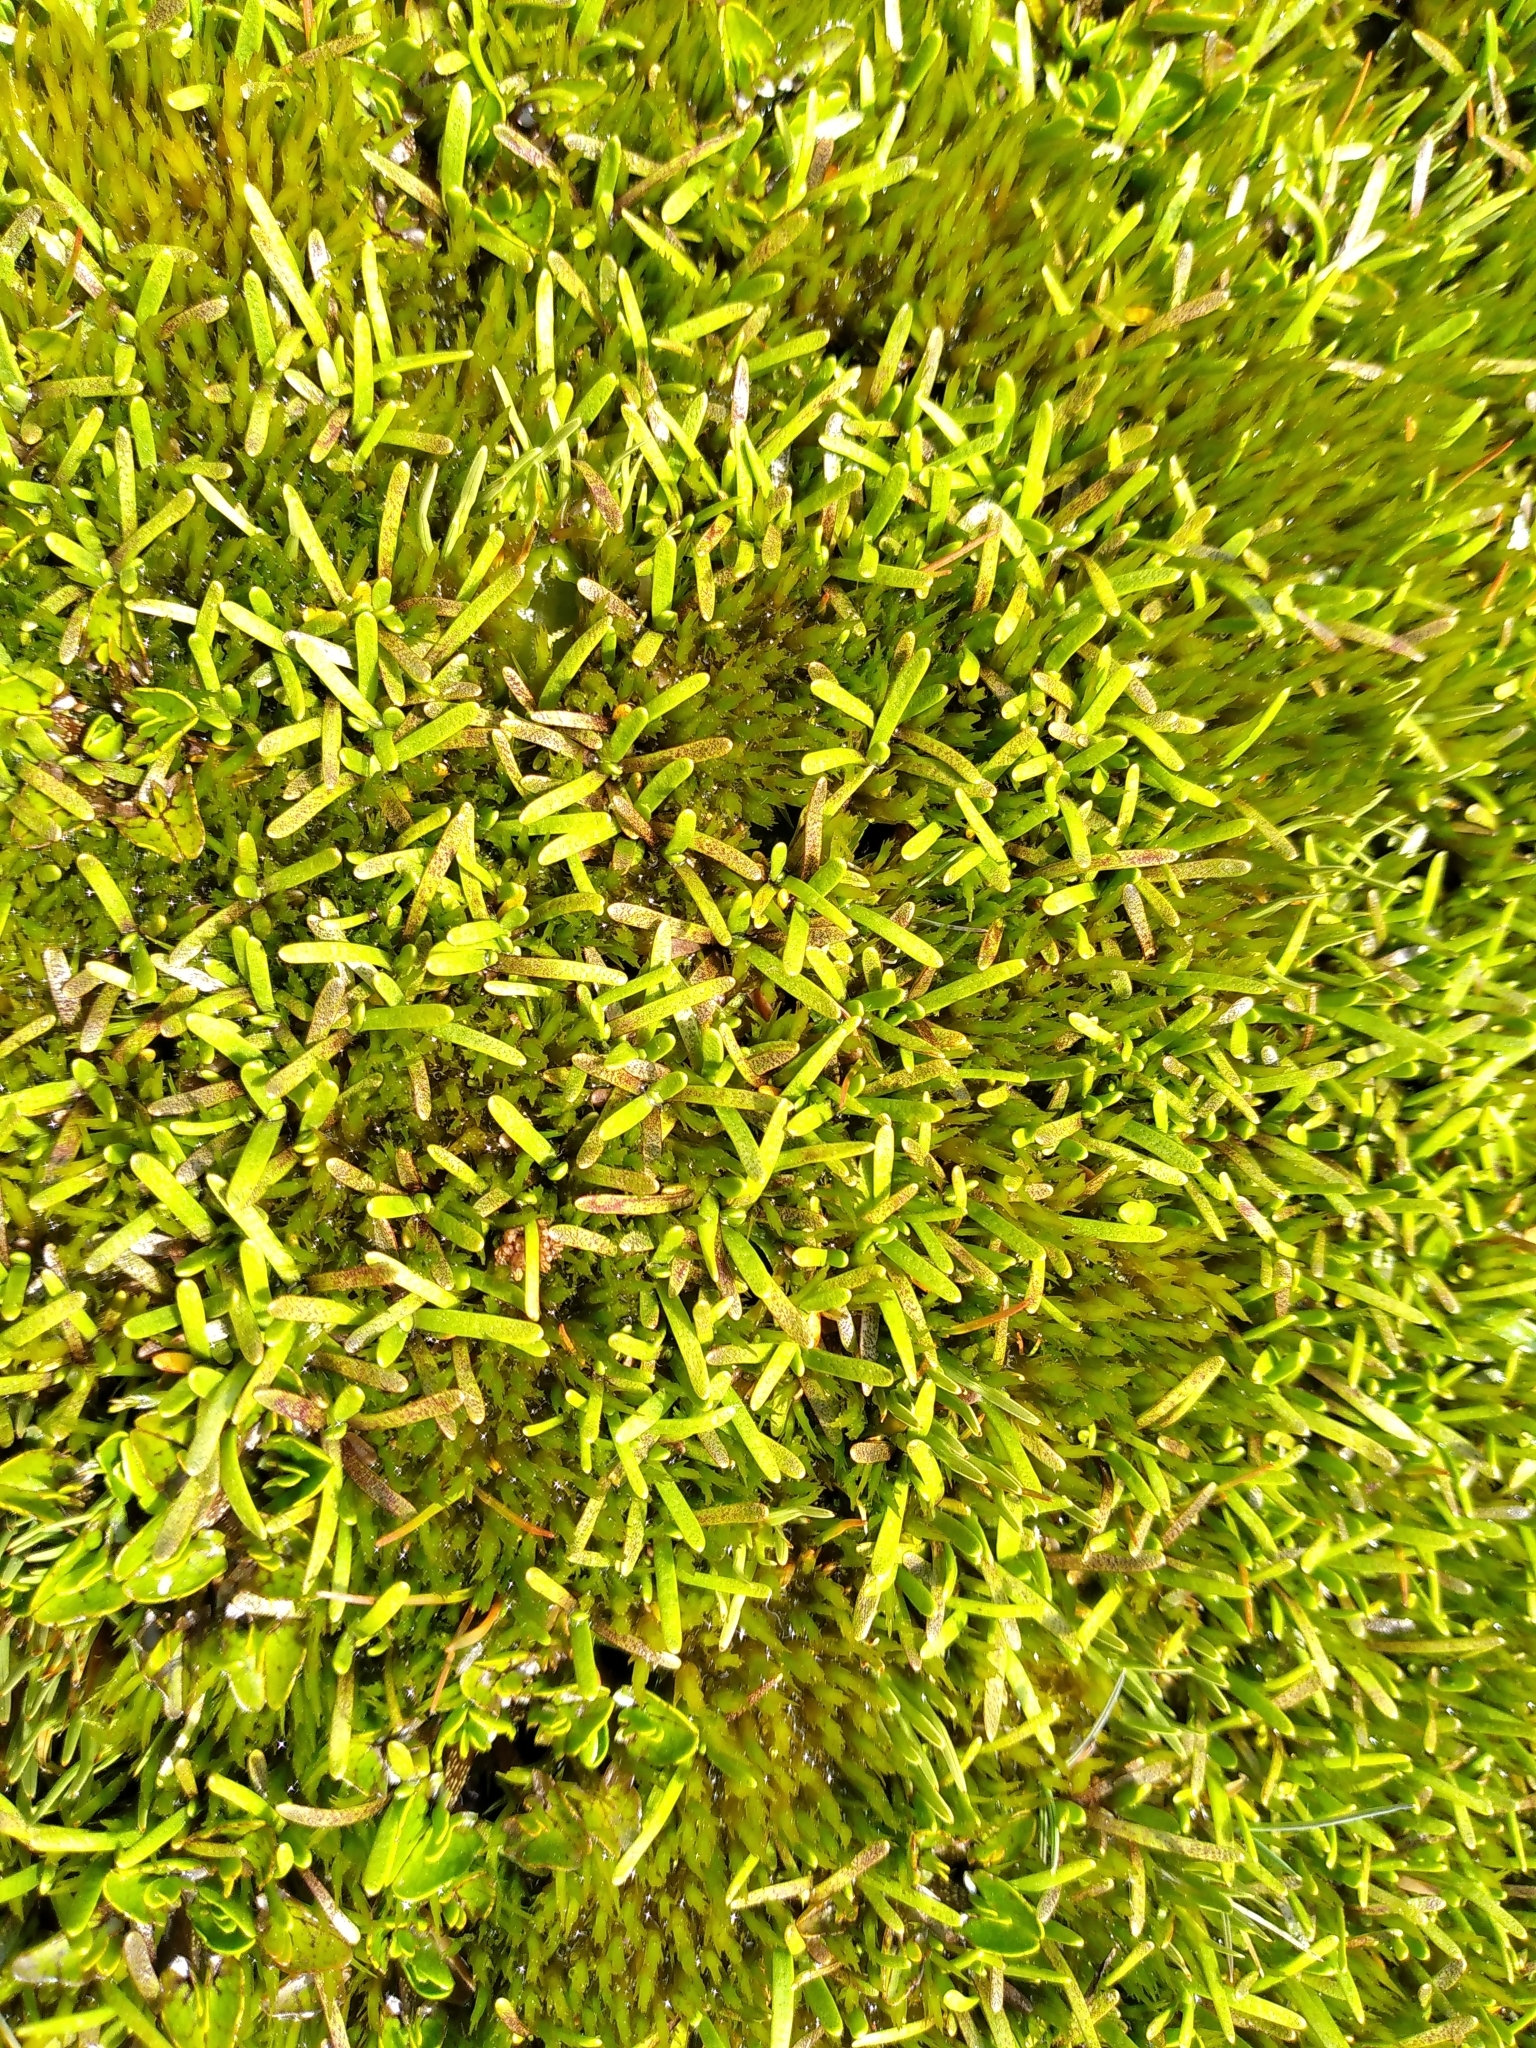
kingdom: Plantae
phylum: Tracheophyta
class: Magnoliopsida
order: Asterales
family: Asteraceae
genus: Abrotanella
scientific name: Abrotanella caespitosa
